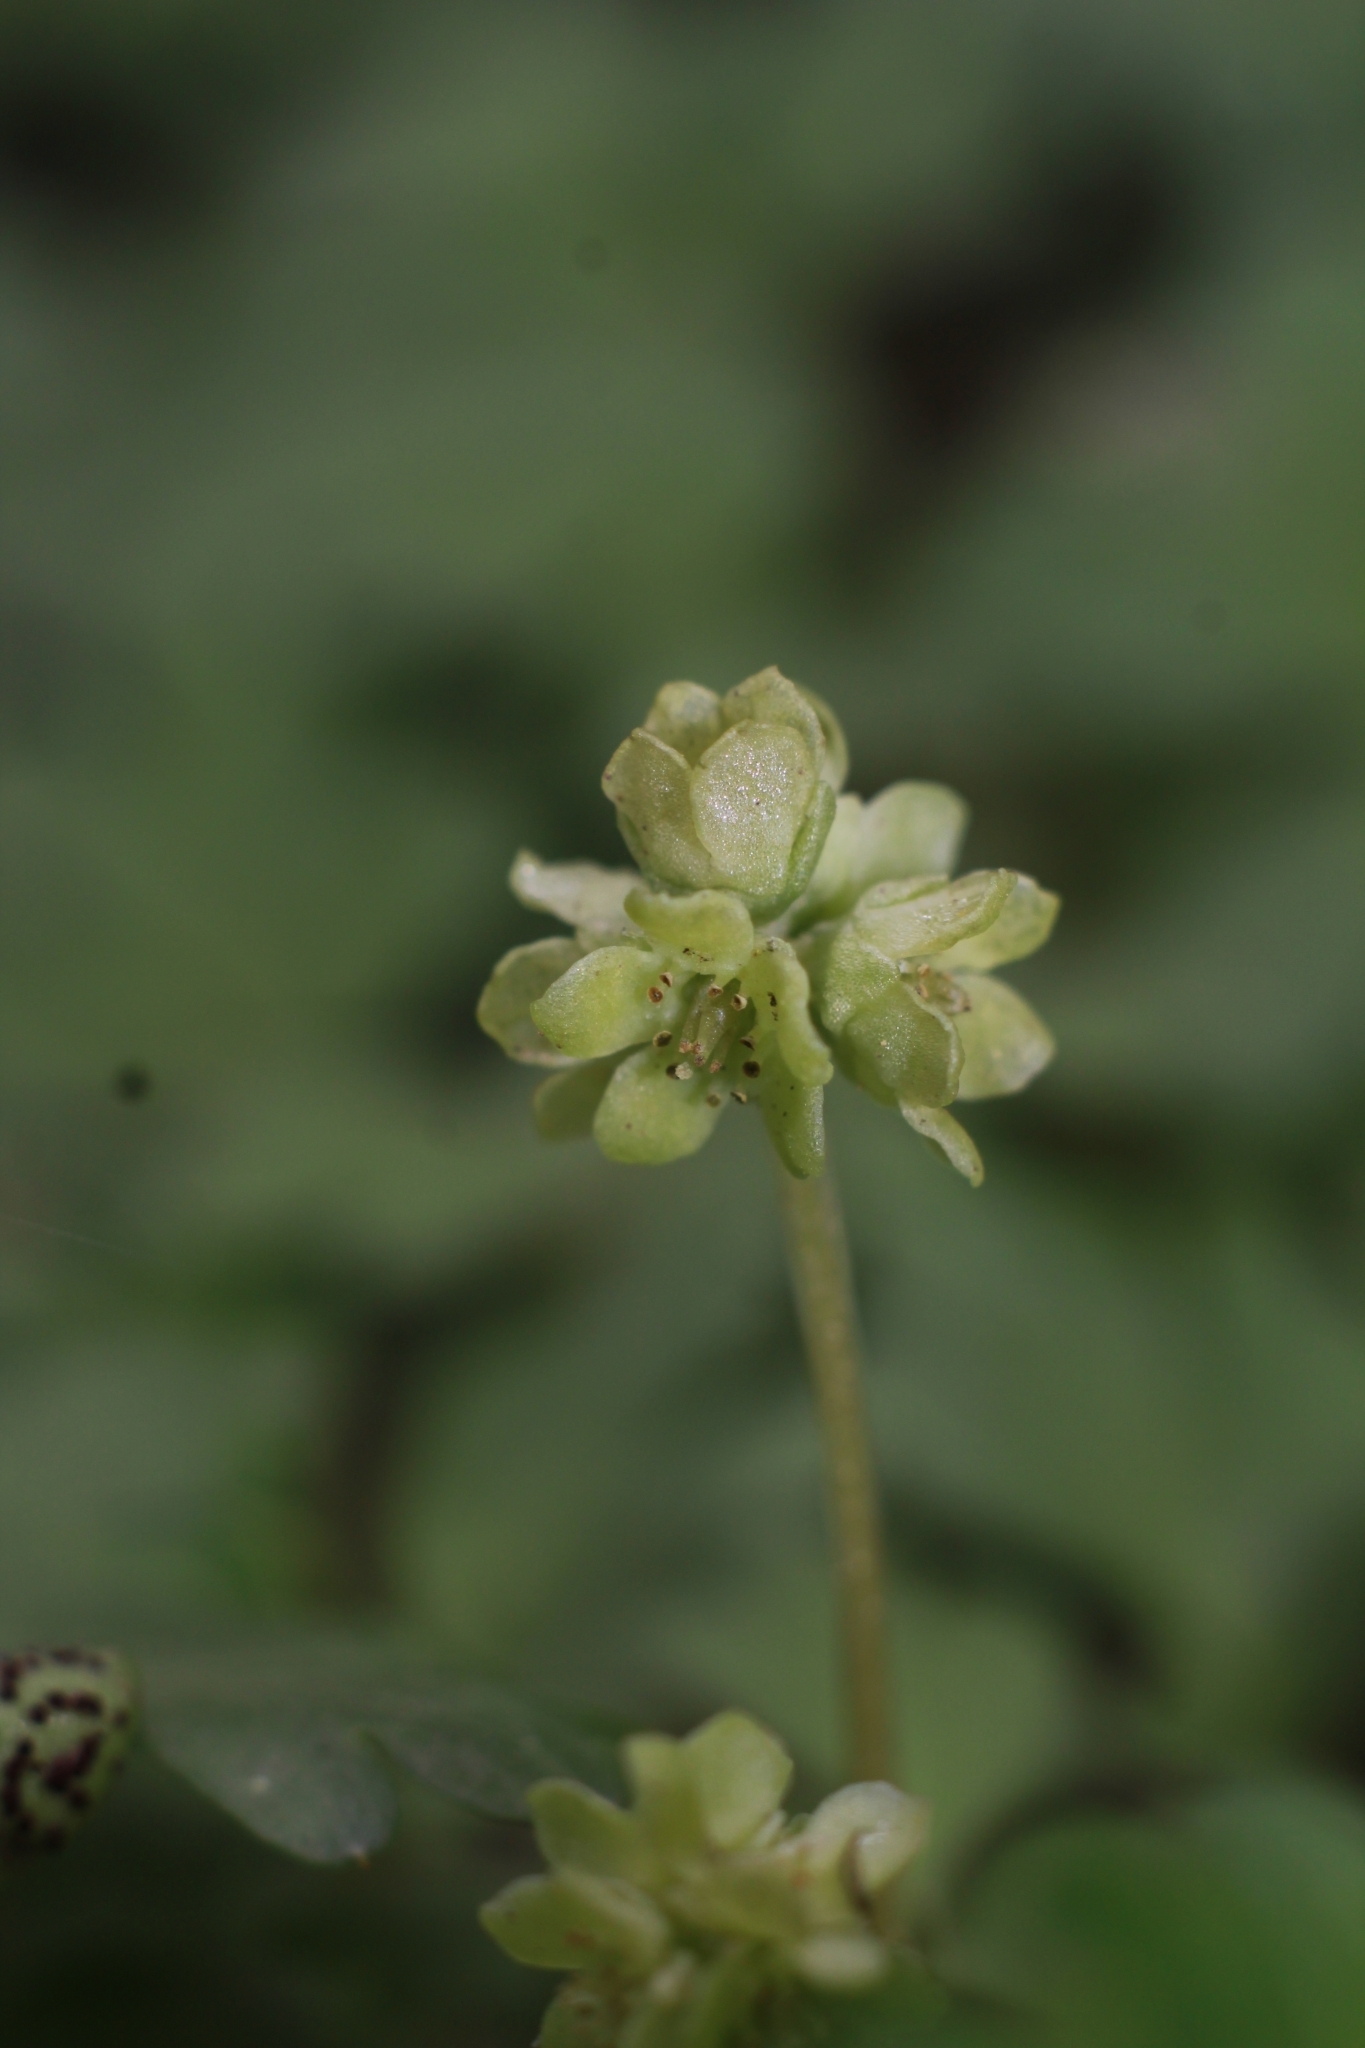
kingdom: Plantae
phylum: Tracheophyta
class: Magnoliopsida
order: Dipsacales
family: Viburnaceae
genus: Adoxa
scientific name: Adoxa moschatellina
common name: Moschatel
